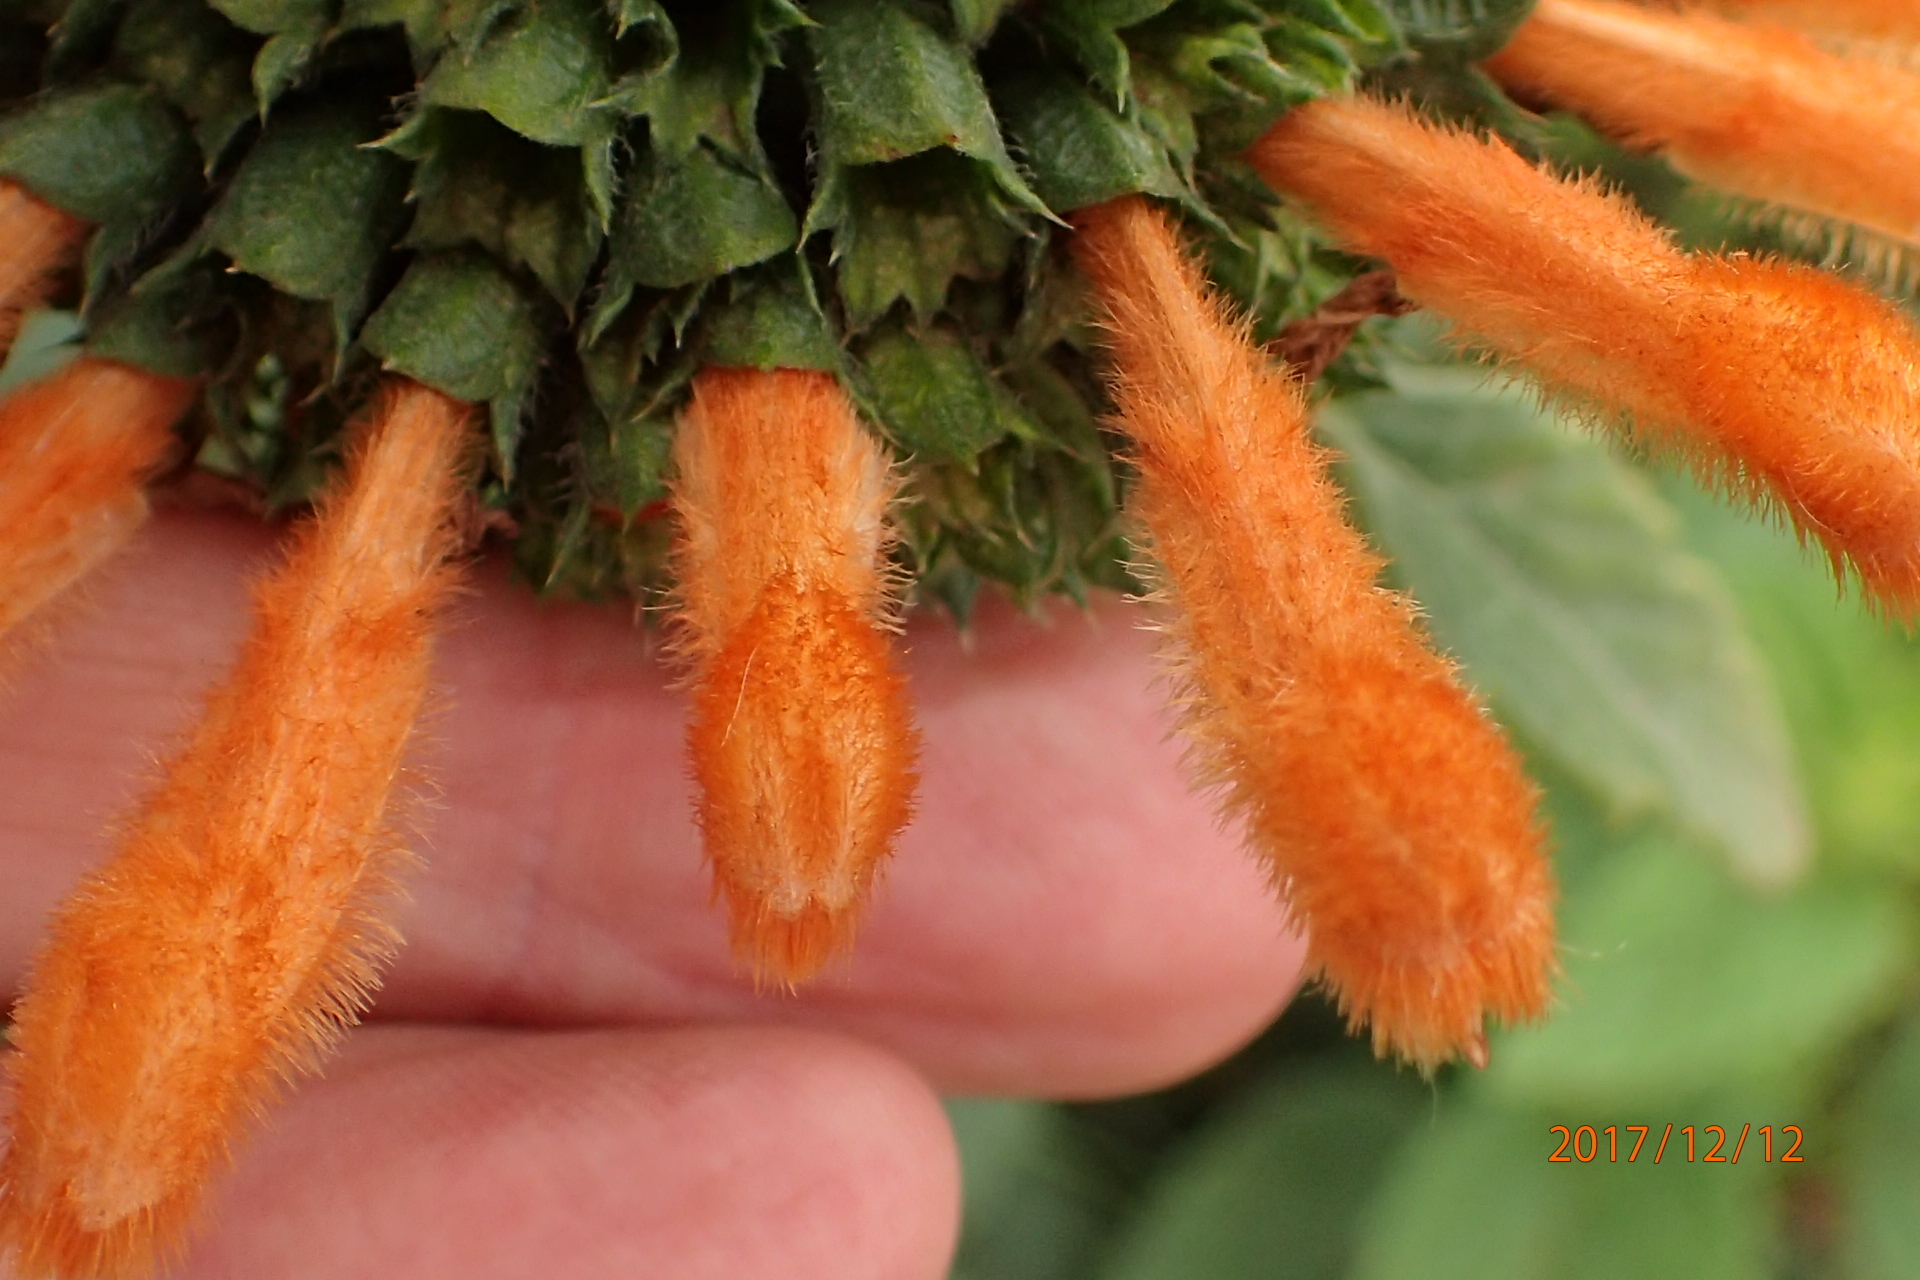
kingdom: Plantae
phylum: Tracheophyta
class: Magnoliopsida
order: Lamiales
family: Lamiaceae
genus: Leonotis
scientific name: Leonotis ocymifolia
